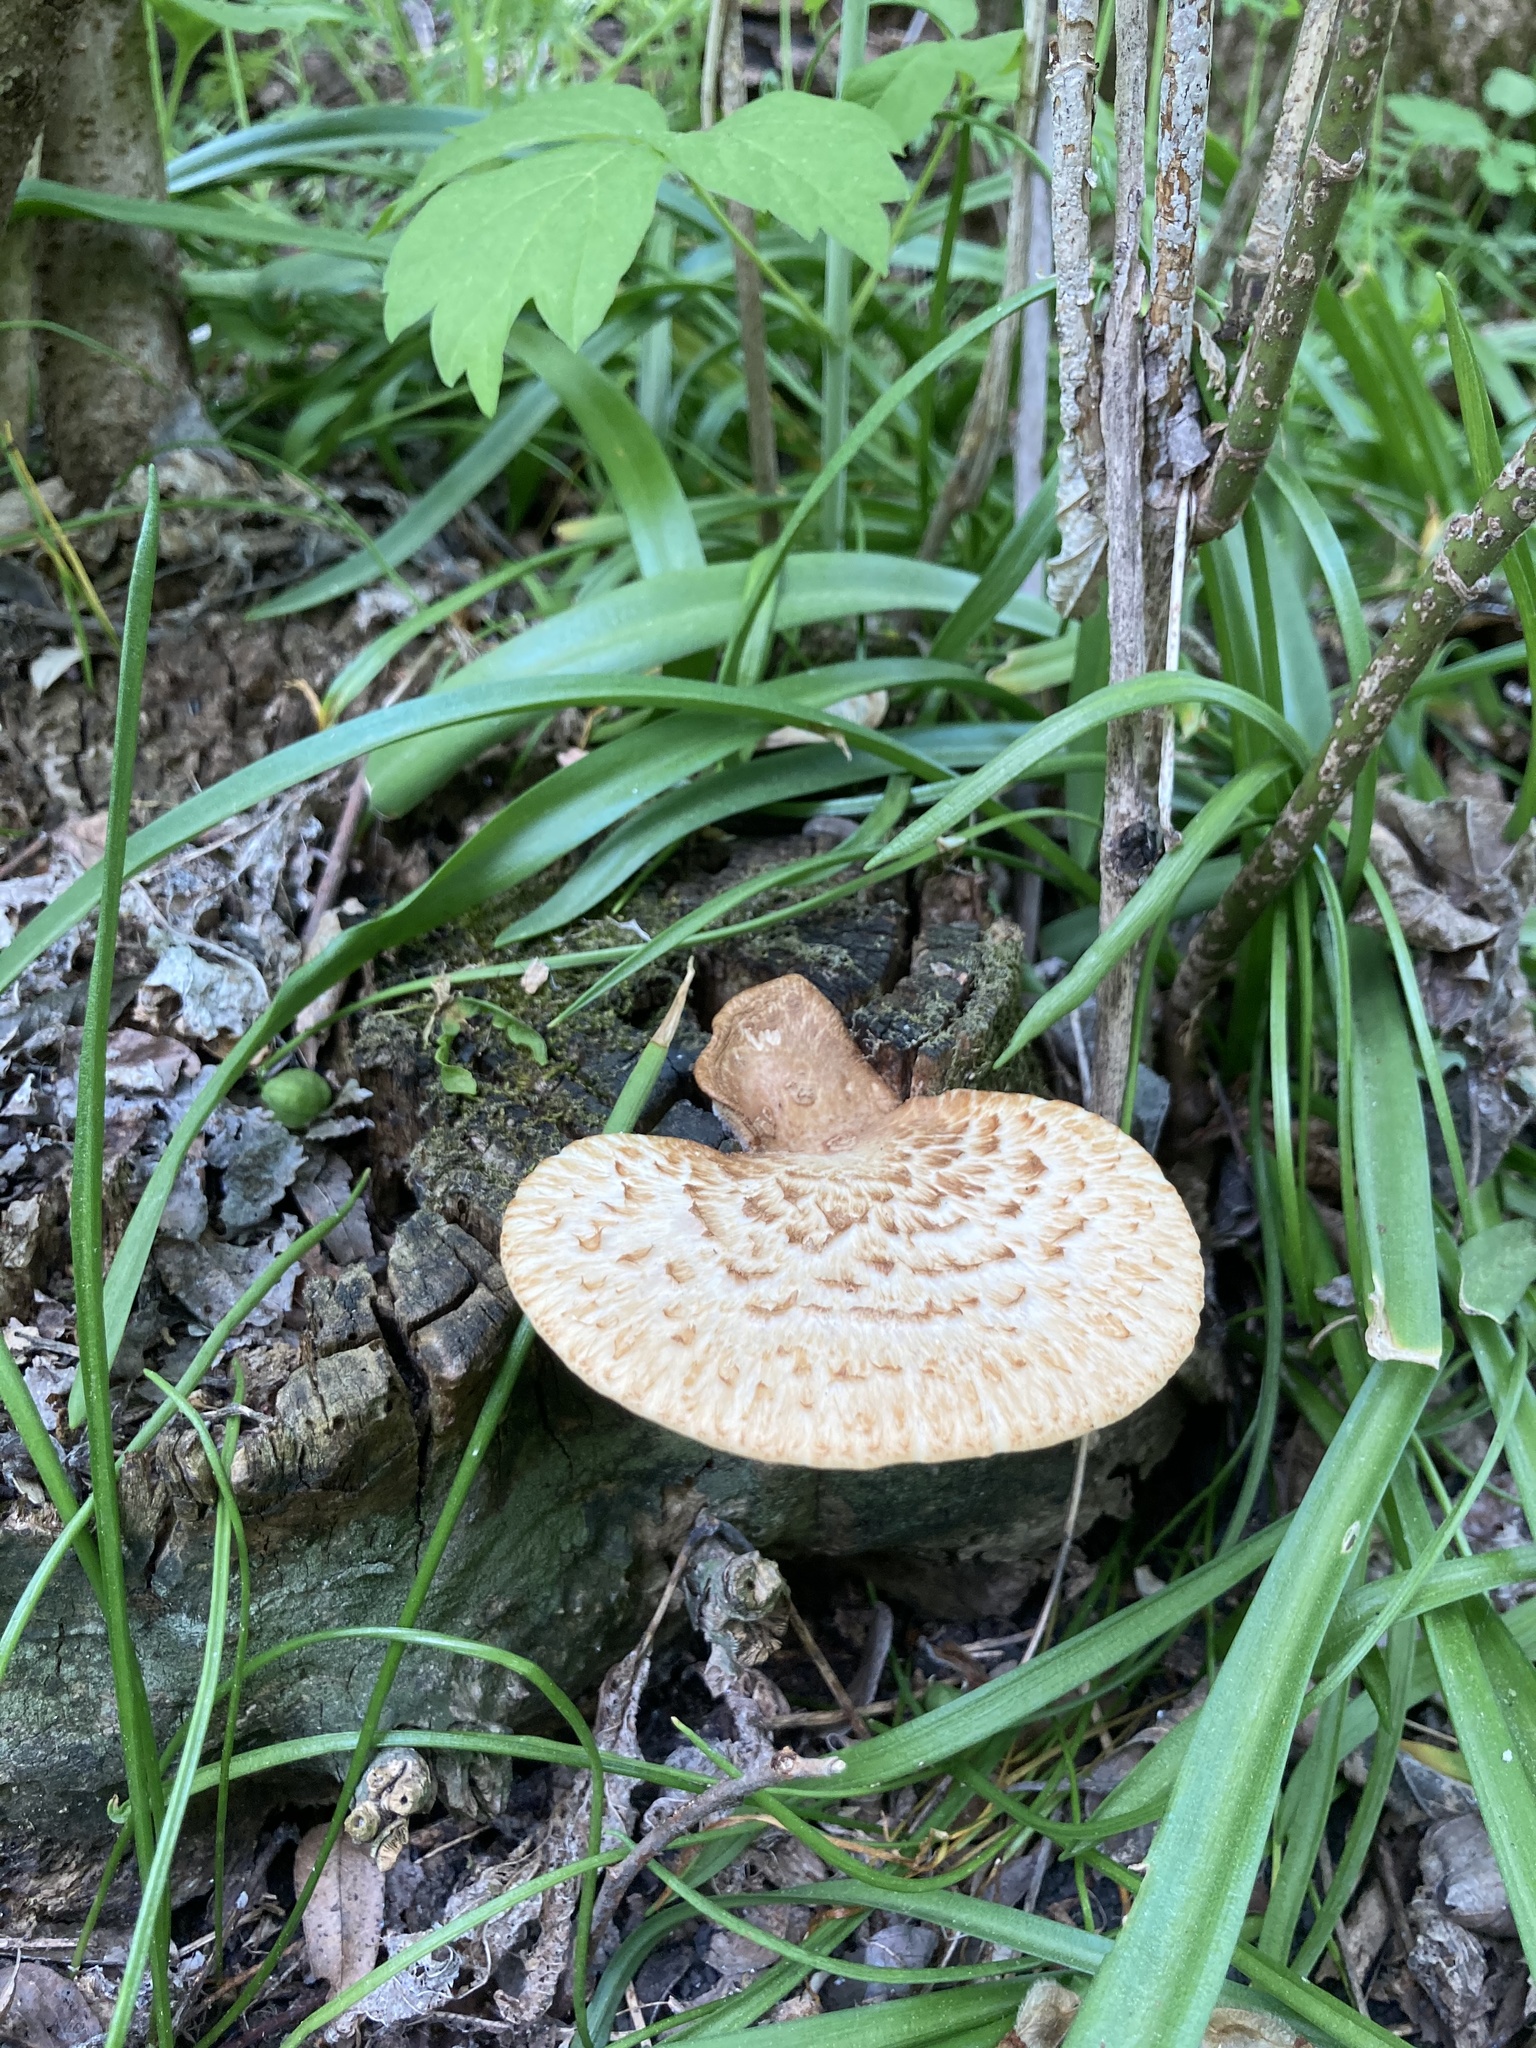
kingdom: Fungi
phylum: Basidiomycota
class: Agaricomycetes
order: Polyporales
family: Polyporaceae
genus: Cerioporus
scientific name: Cerioporus squamosus
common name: Dryad's saddle
